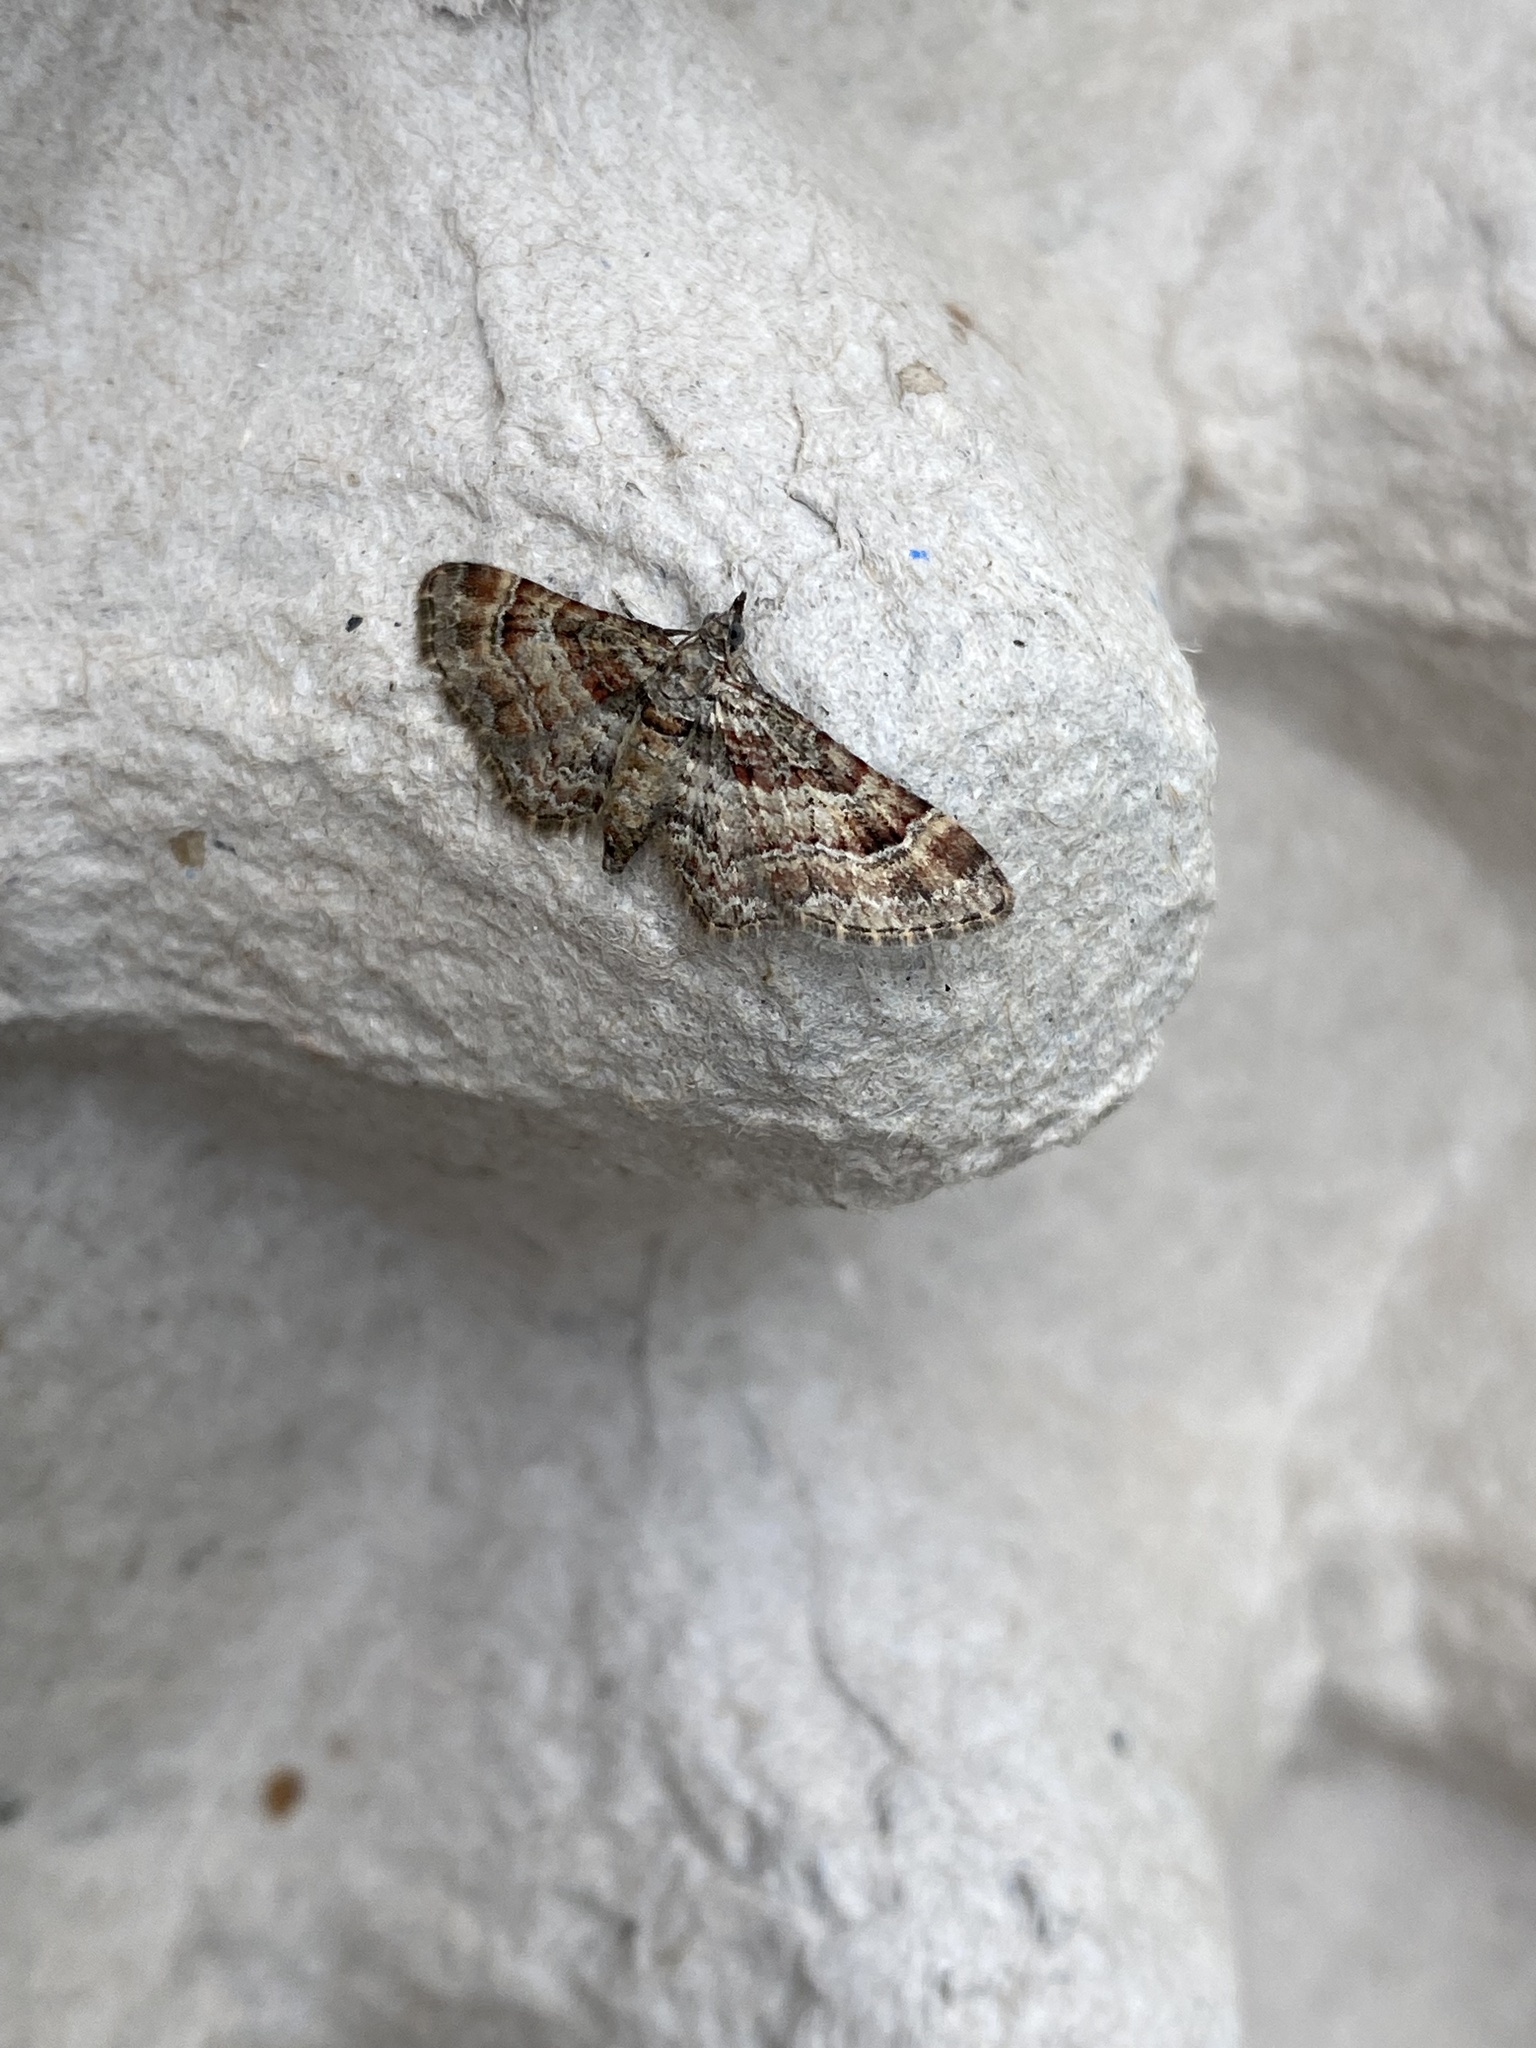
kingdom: Animalia
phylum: Arthropoda
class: Insecta
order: Lepidoptera
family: Geometridae
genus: Gymnoscelis
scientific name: Gymnoscelis rufifasciata
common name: Double-striped pug
